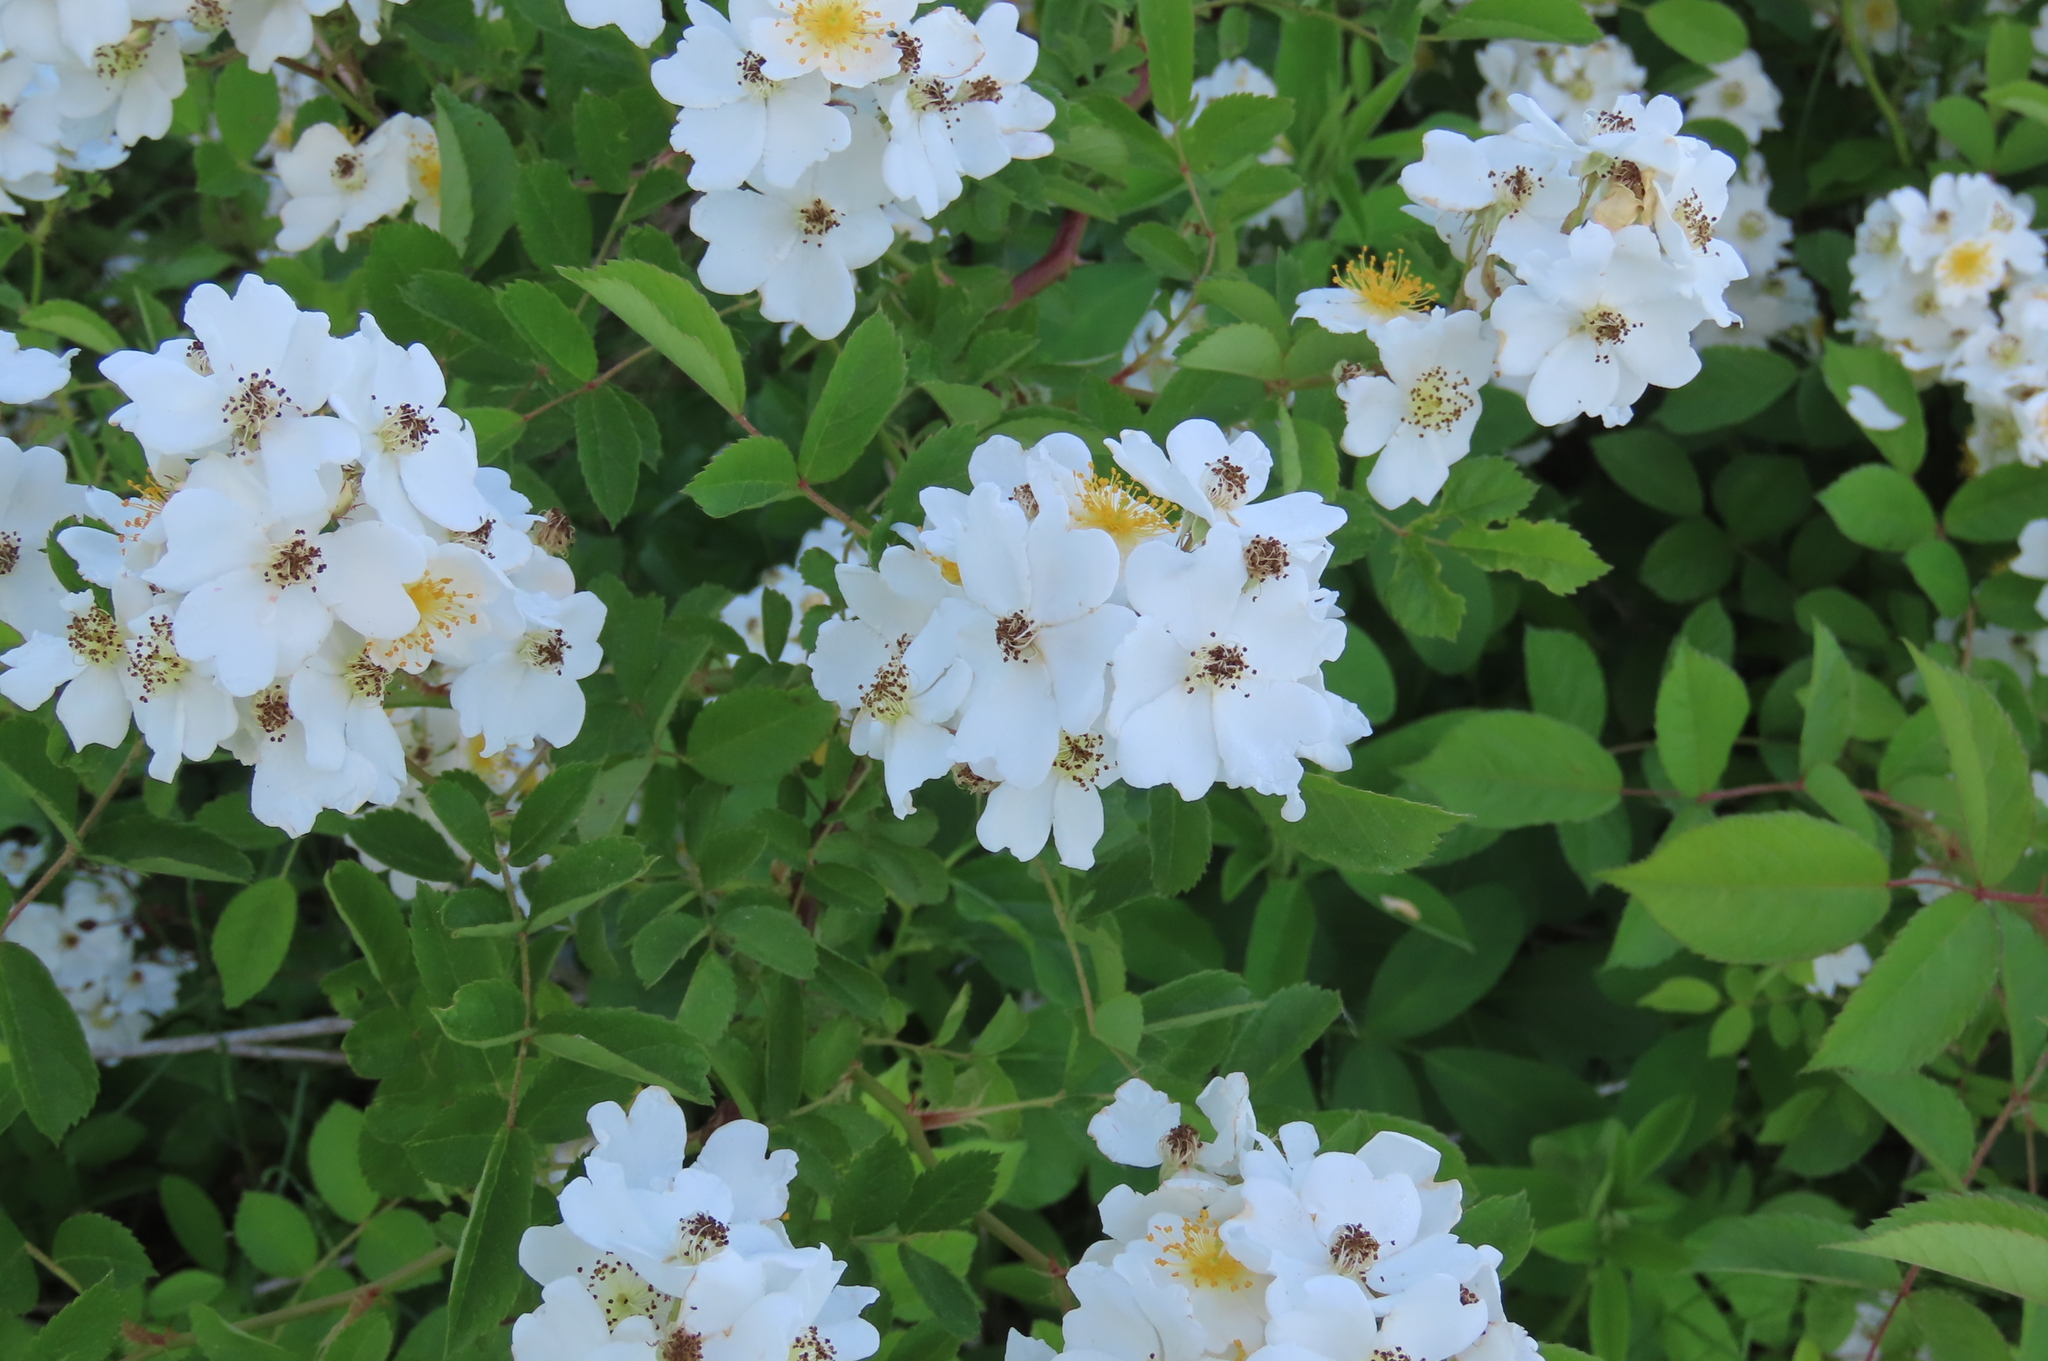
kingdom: Plantae
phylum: Tracheophyta
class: Magnoliopsida
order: Rosales
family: Rosaceae
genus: Rosa
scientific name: Rosa multiflora
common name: Multiflora rose
